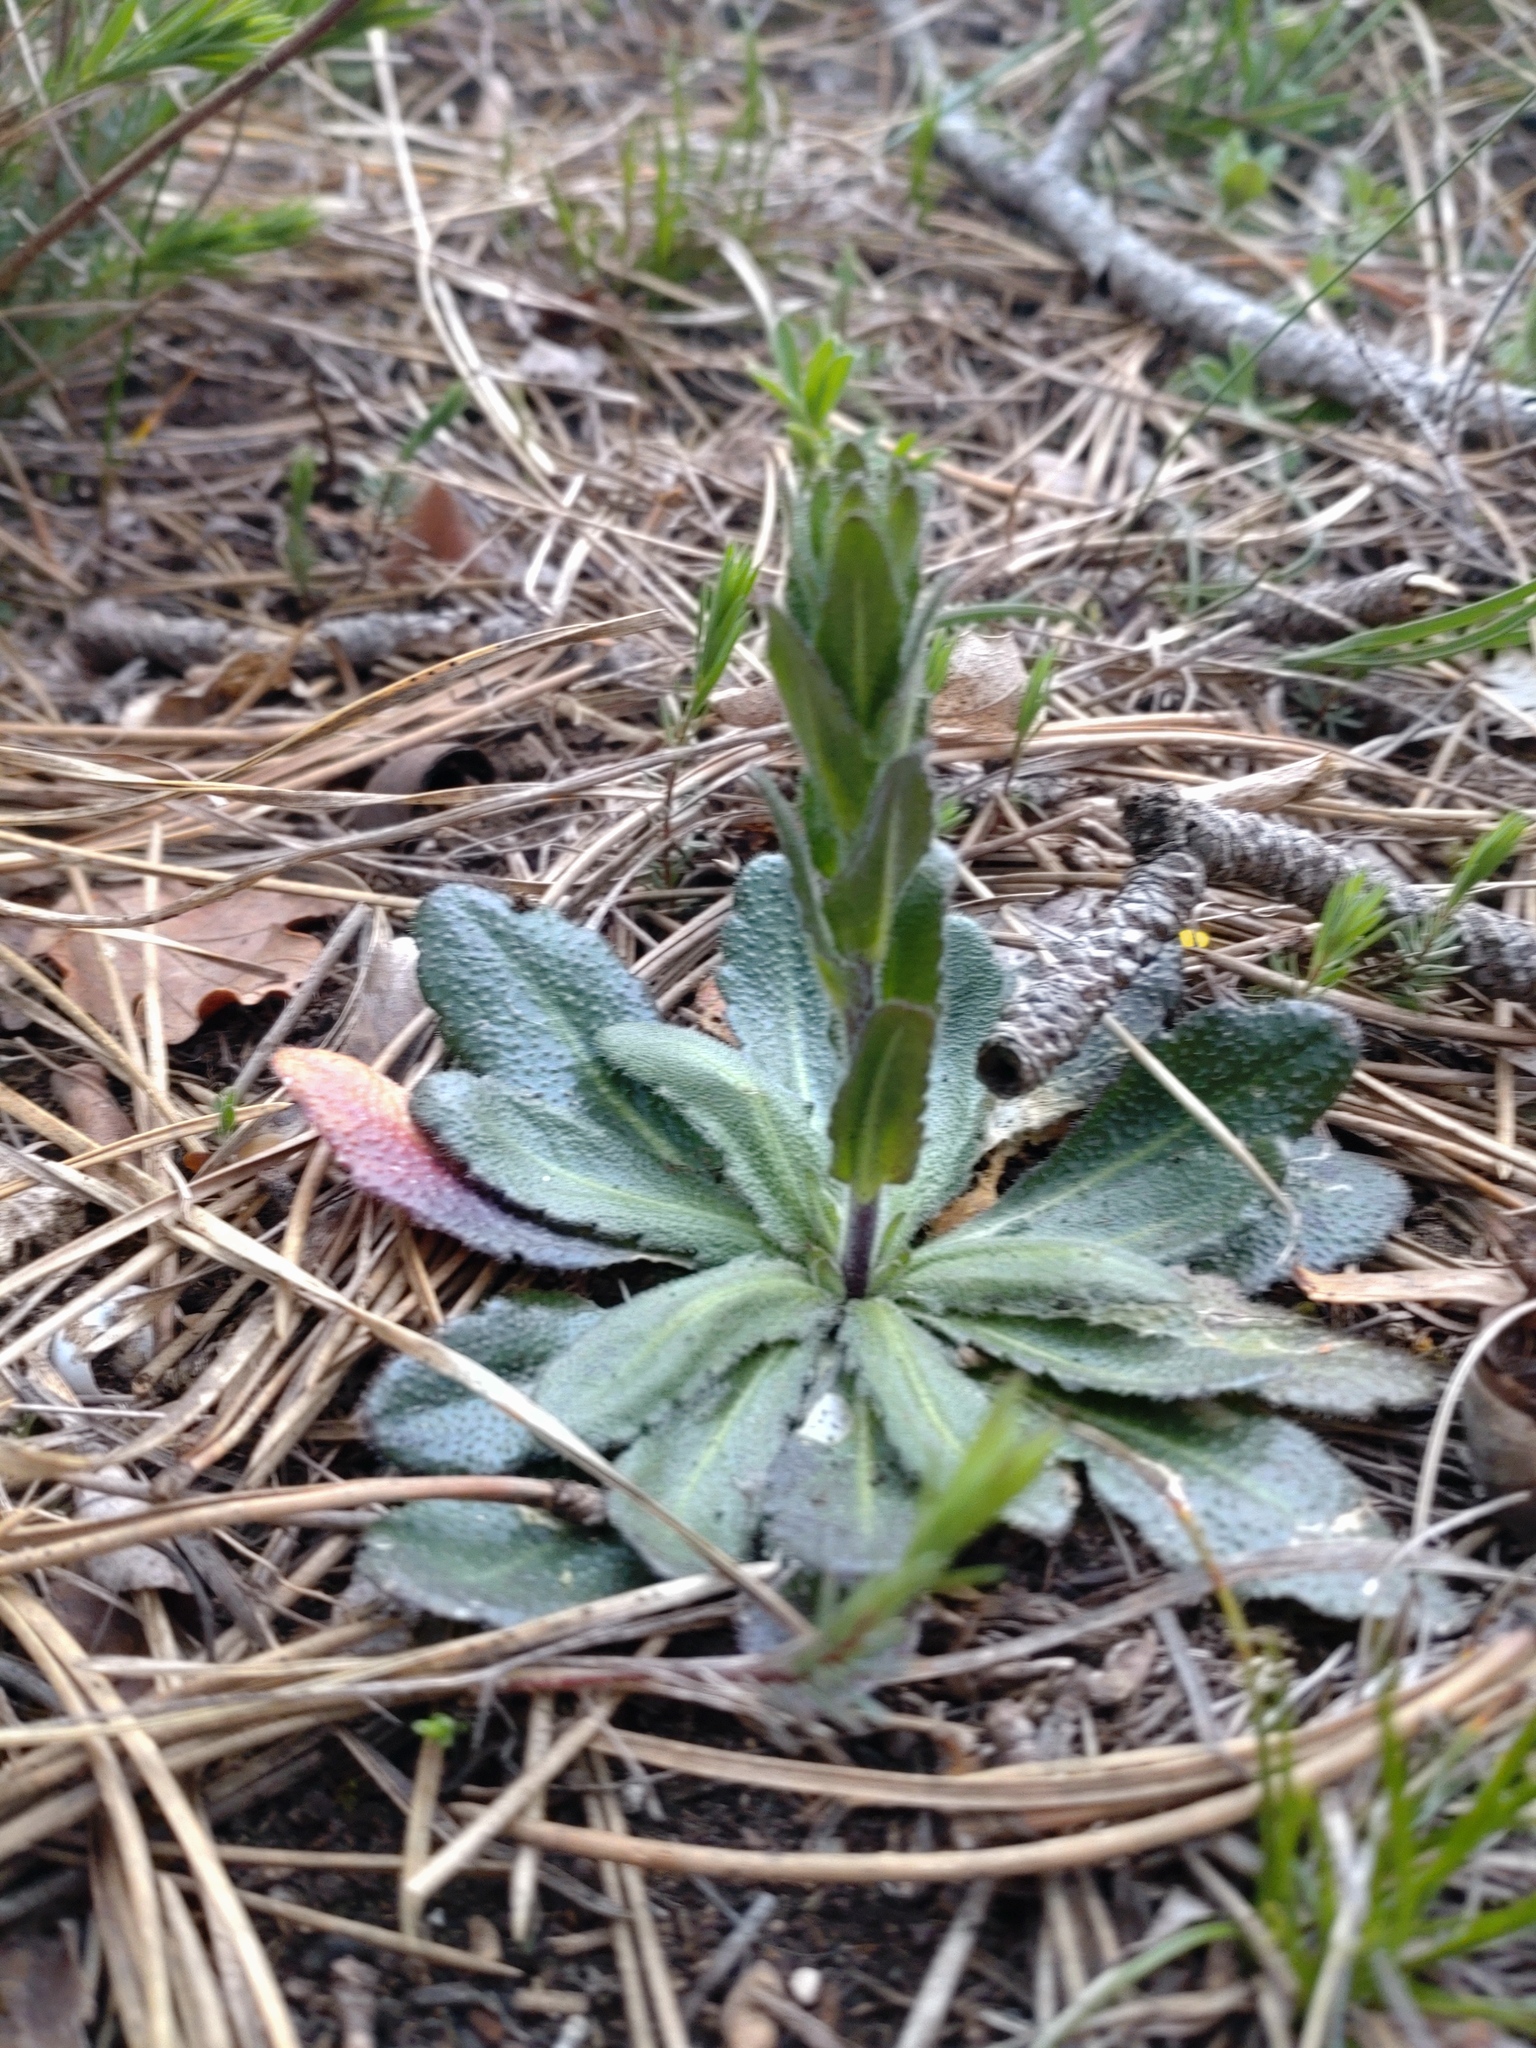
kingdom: Plantae
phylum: Tracheophyta
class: Magnoliopsida
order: Brassicales
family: Brassicaceae
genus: Arabis
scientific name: Arabis hirsuta
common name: Hairy rock-cress
